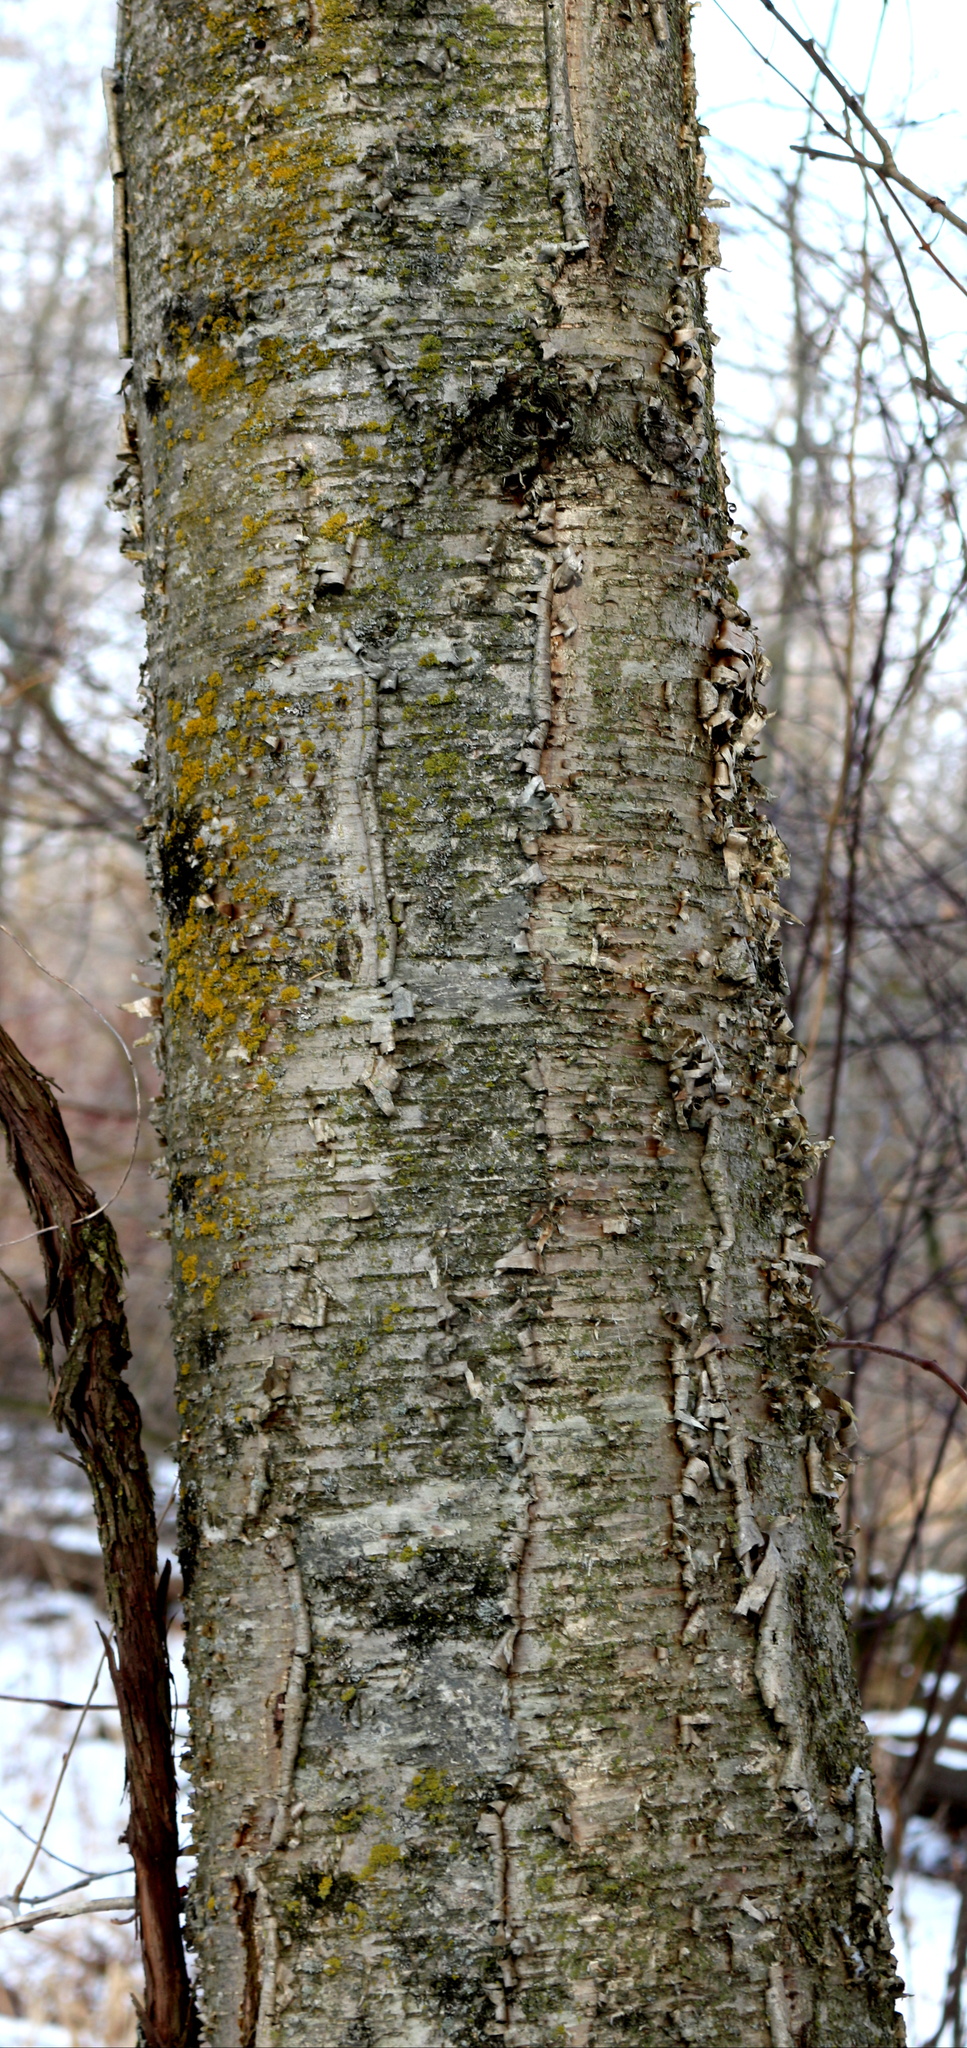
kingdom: Plantae
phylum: Tracheophyta
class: Magnoliopsida
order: Fagales
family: Betulaceae
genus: Betula
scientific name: Betula alleghaniensis
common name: Yellow birch
